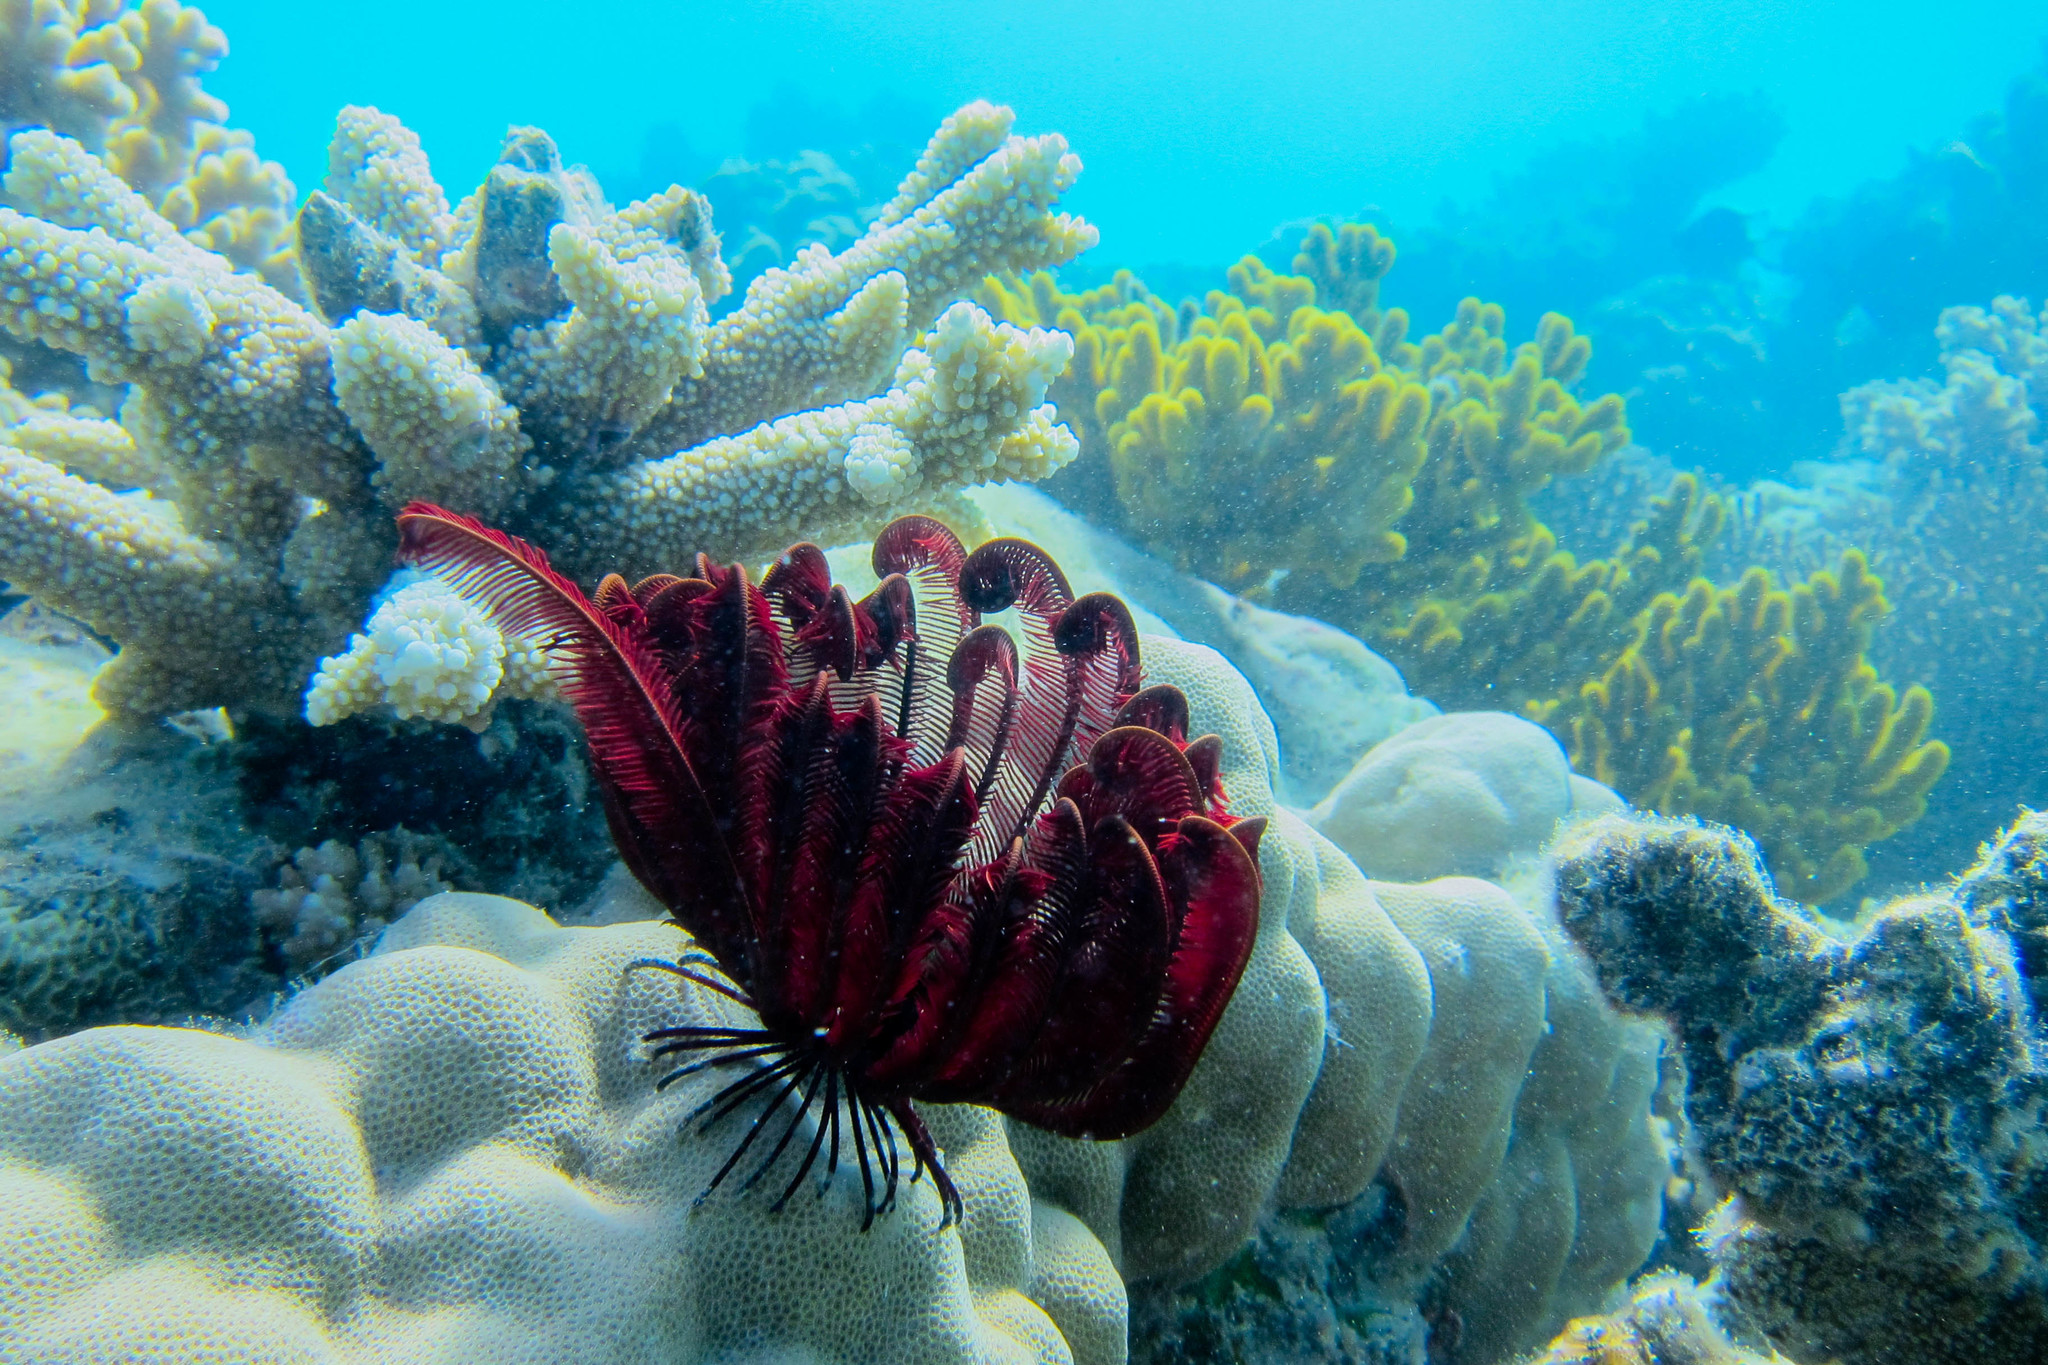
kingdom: Animalia
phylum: Echinodermata
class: Crinoidea
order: Comatulida
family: Himerometridae
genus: Himerometra
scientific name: Himerometra robustipinna
